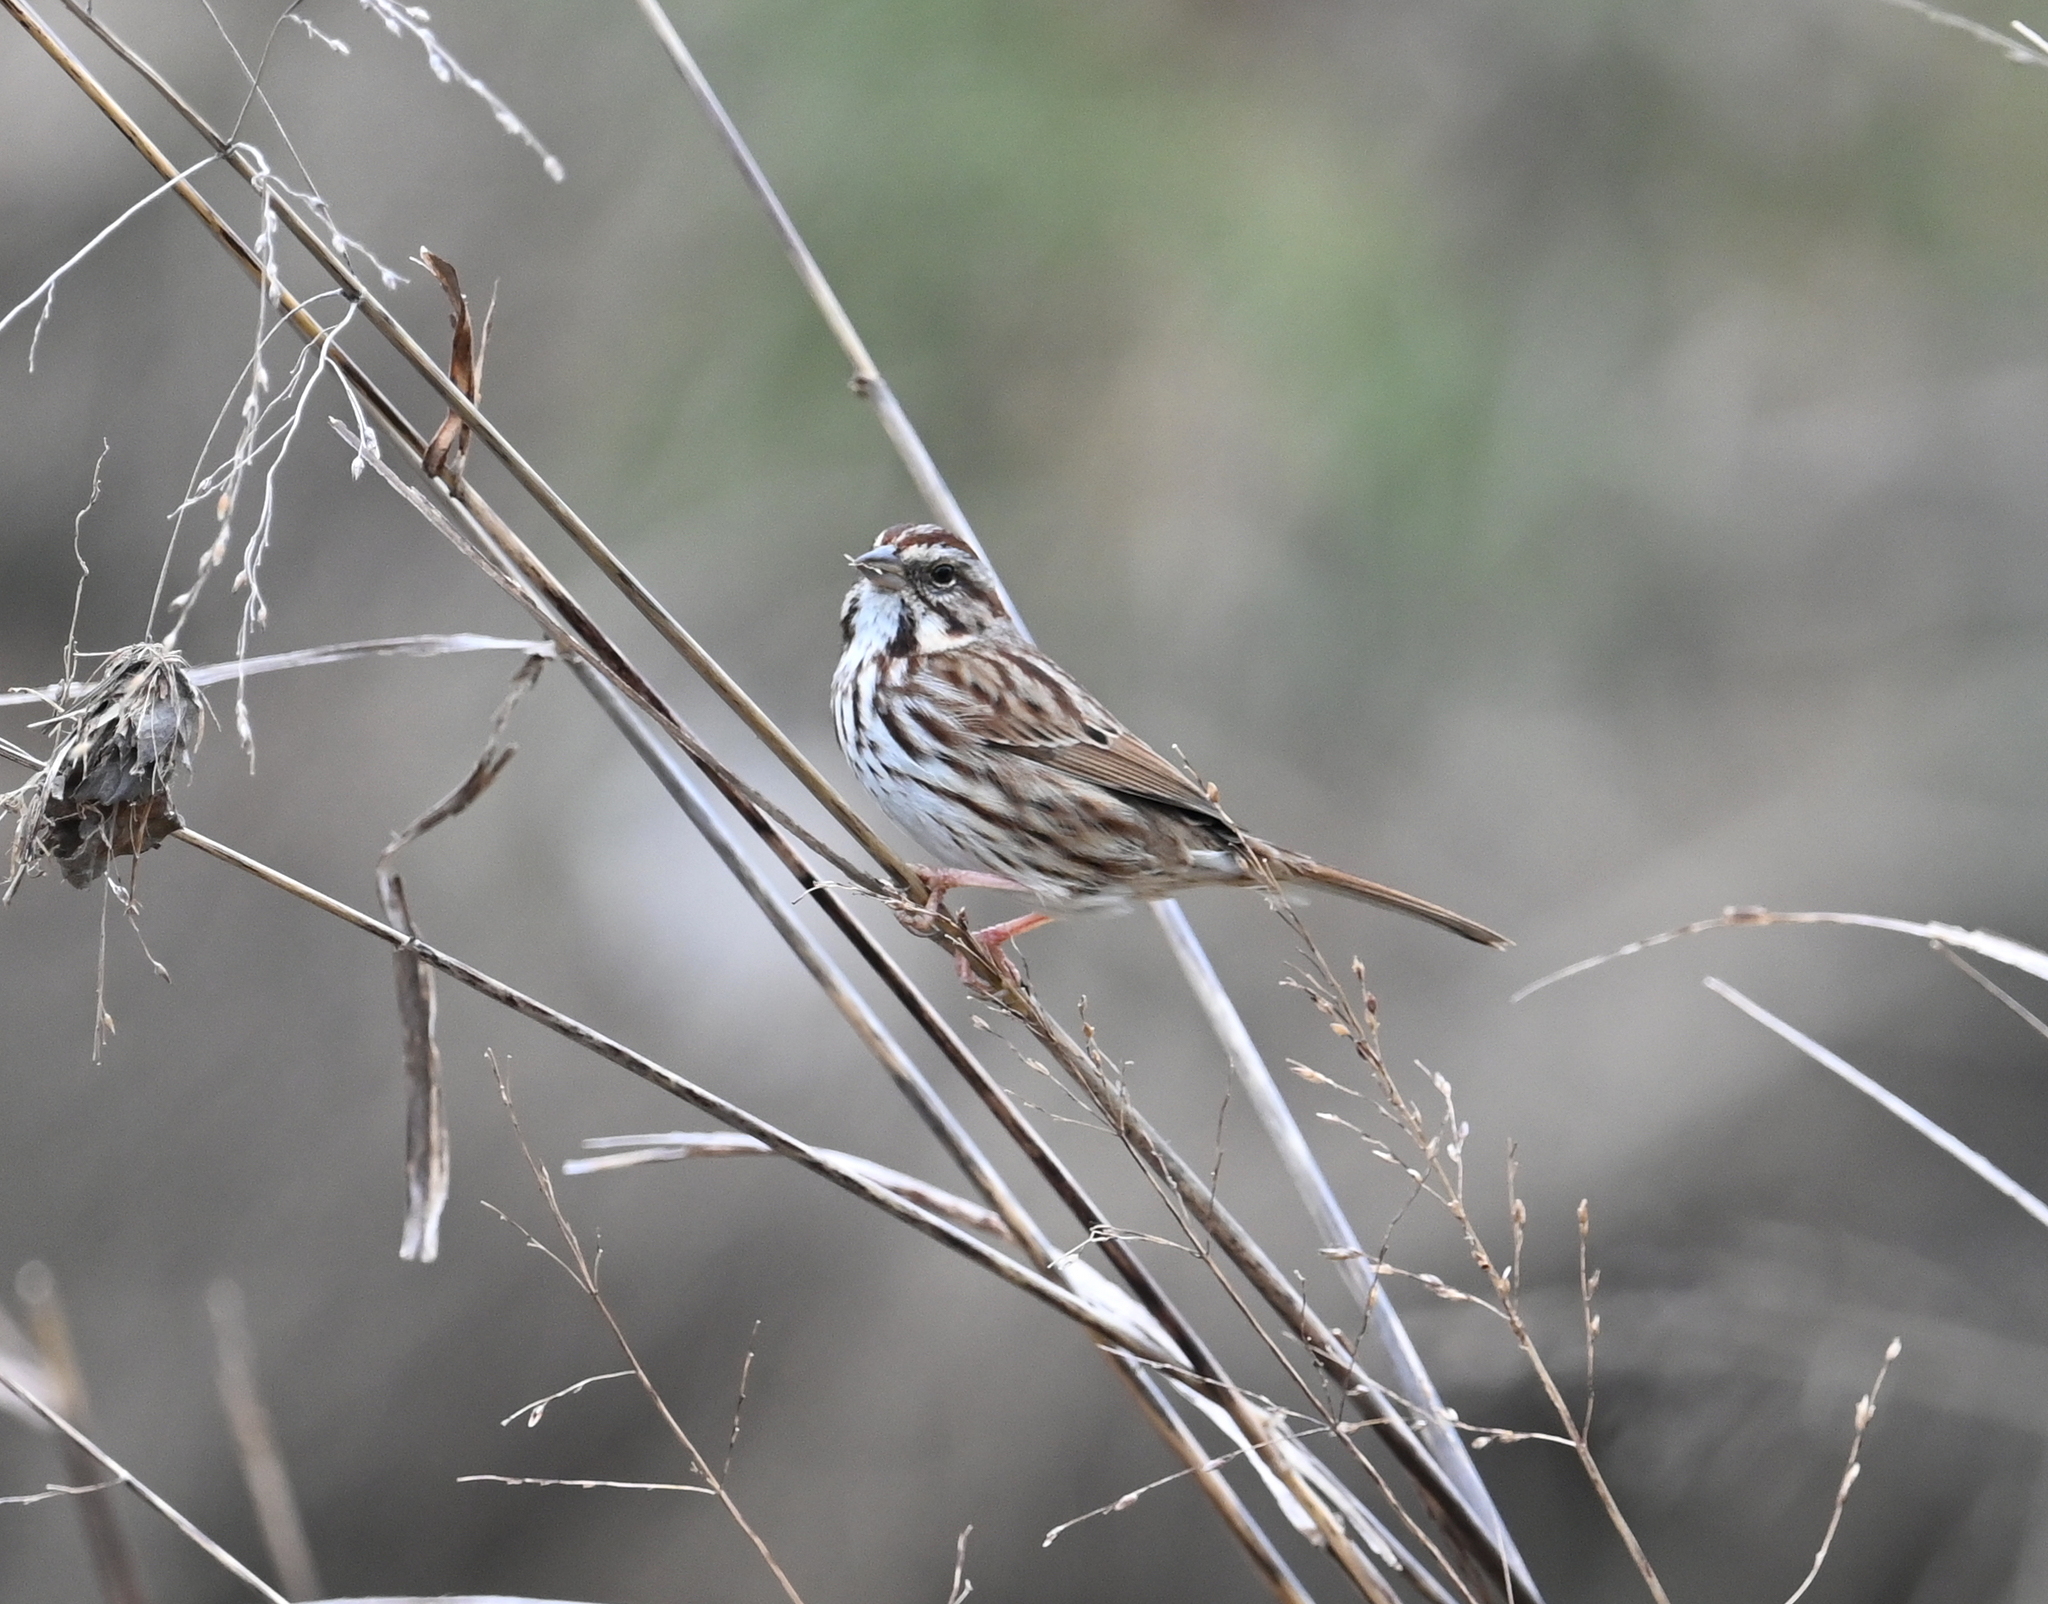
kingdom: Animalia
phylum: Chordata
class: Aves
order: Passeriformes
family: Passerellidae
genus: Melospiza
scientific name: Melospiza melodia
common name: Song sparrow
